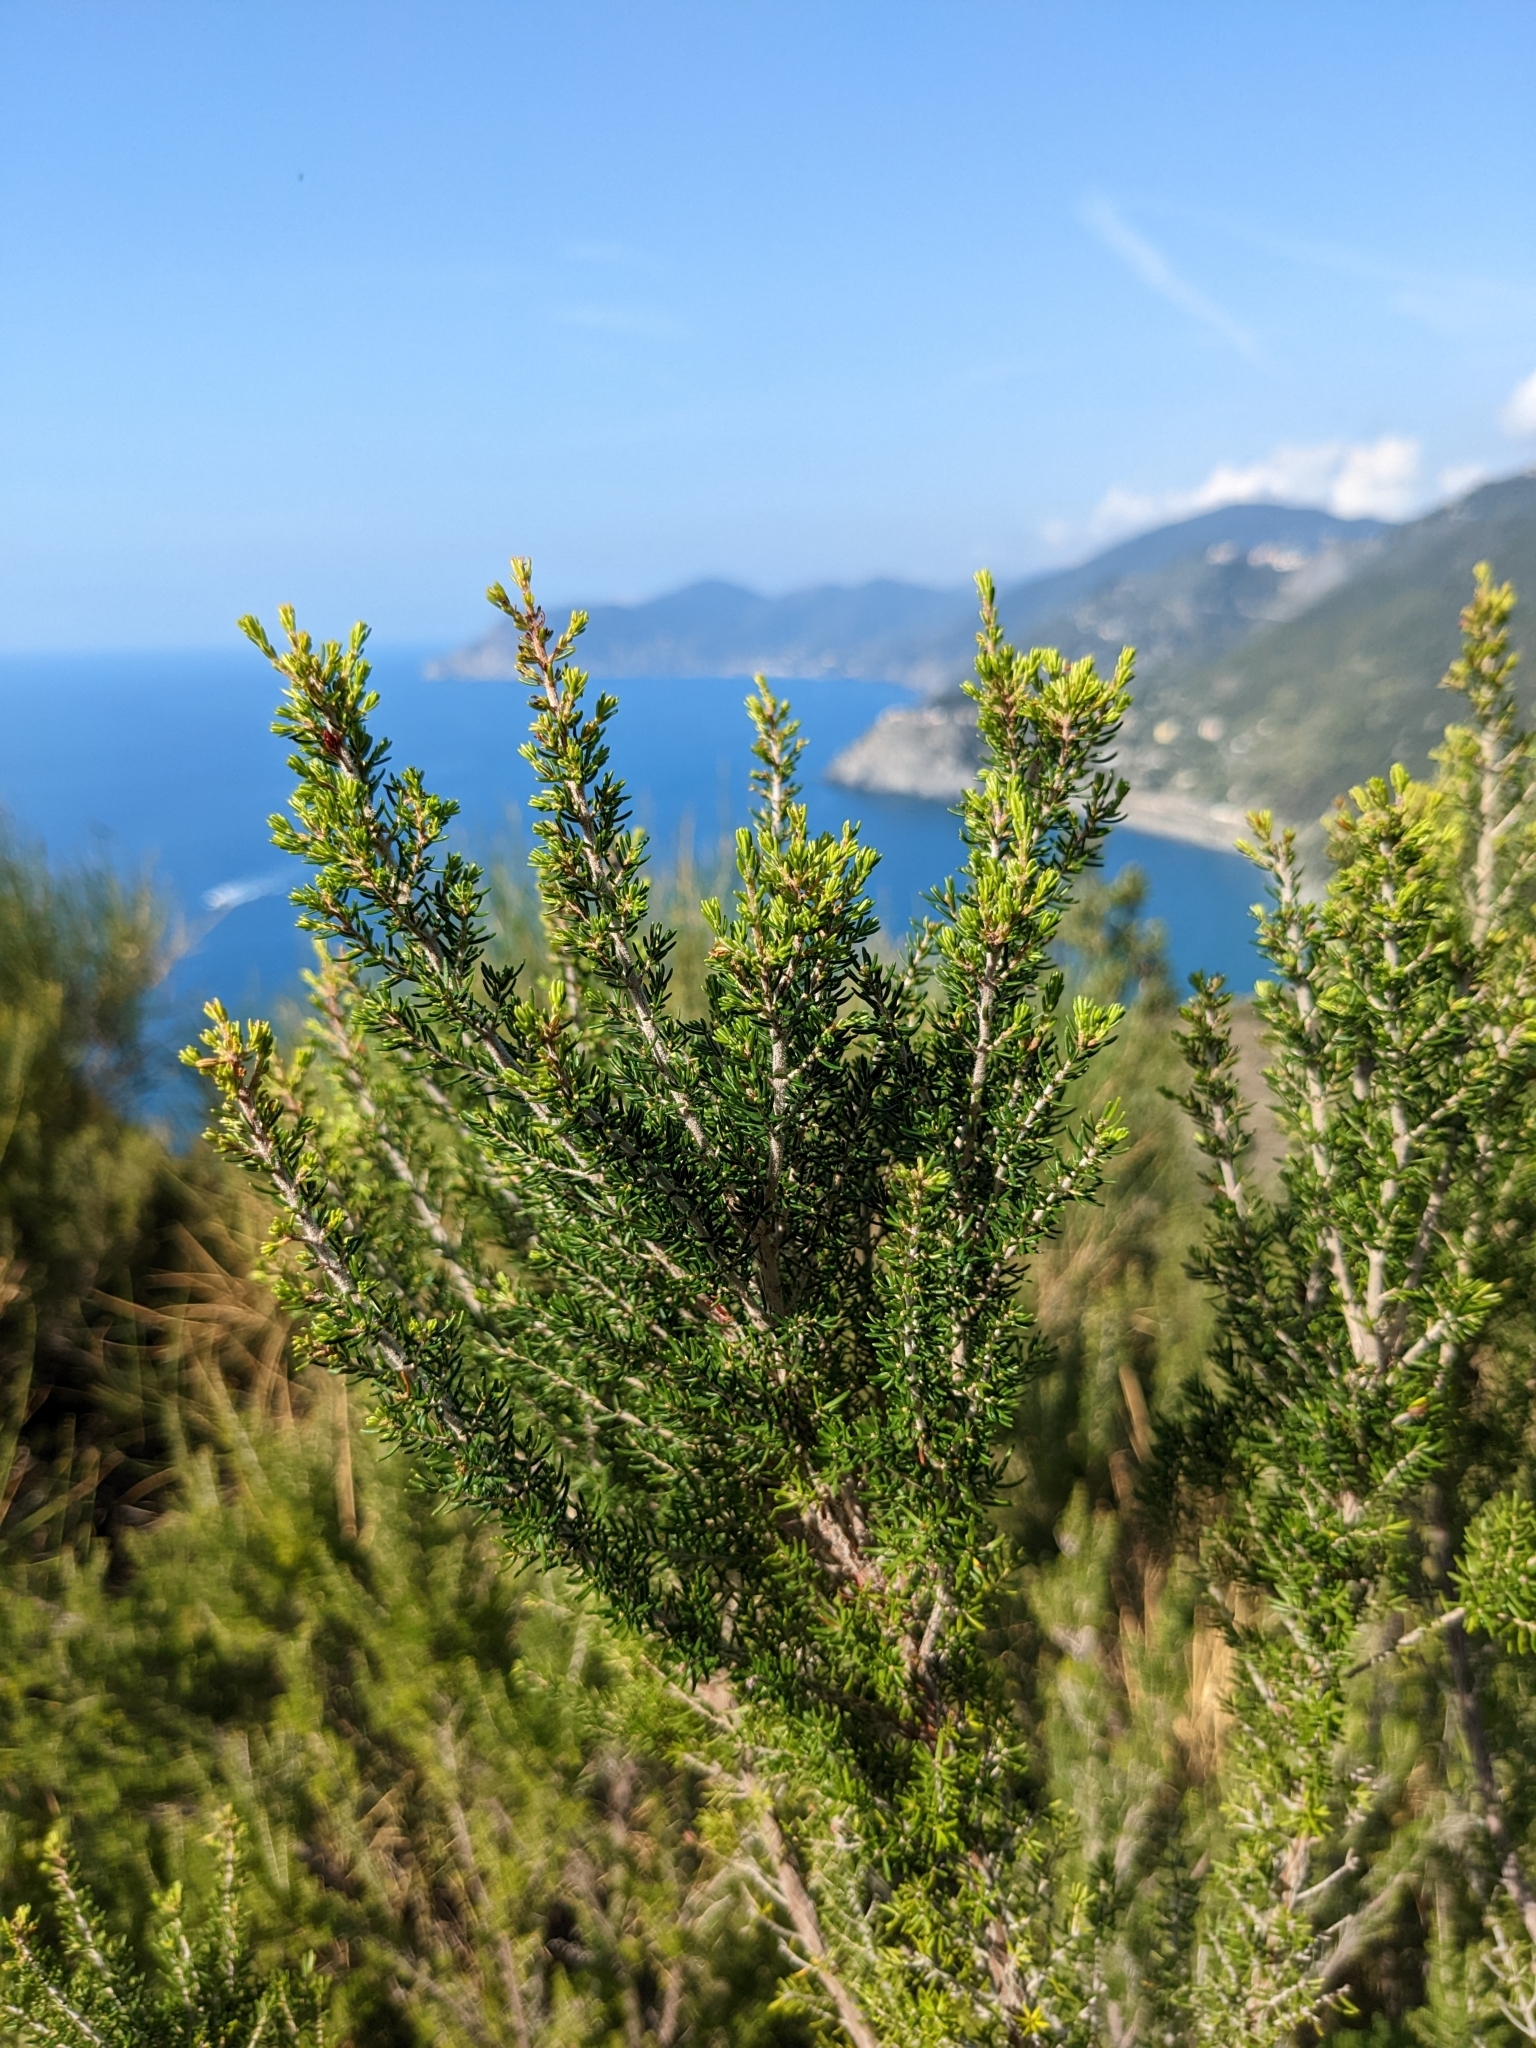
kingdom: Plantae
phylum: Tracheophyta
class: Magnoliopsida
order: Ericales
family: Ericaceae
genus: Erica
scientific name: Erica arborea
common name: Tree heath
